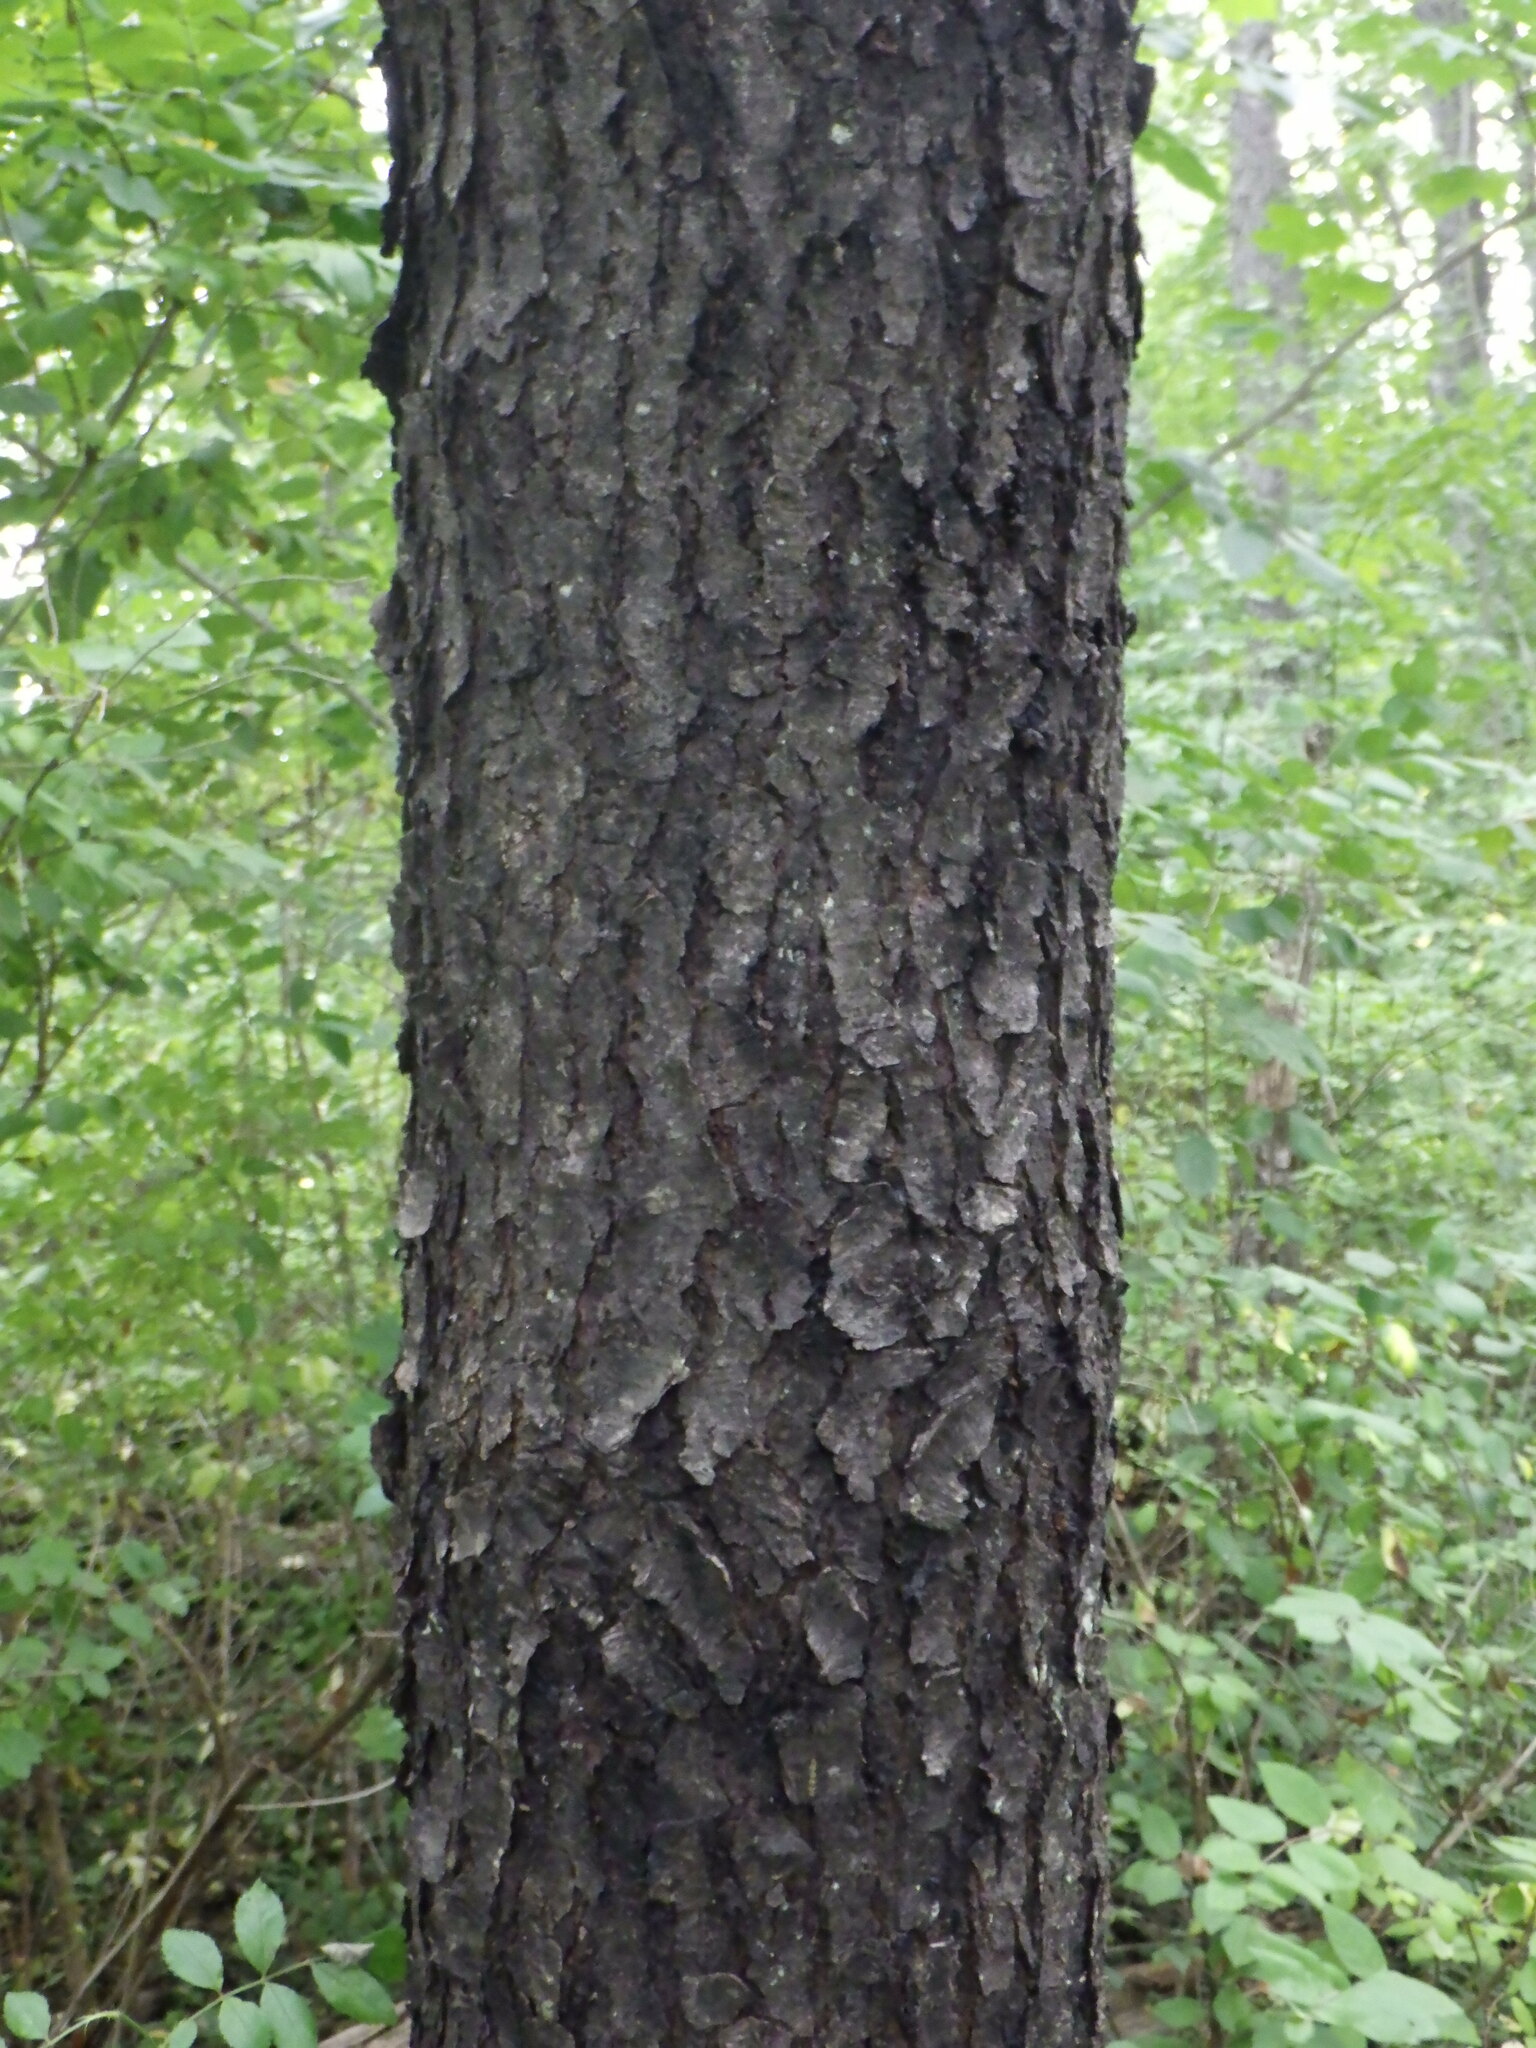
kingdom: Plantae
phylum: Tracheophyta
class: Magnoliopsida
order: Rosales
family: Rosaceae
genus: Prunus
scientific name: Prunus serotina
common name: Black cherry
